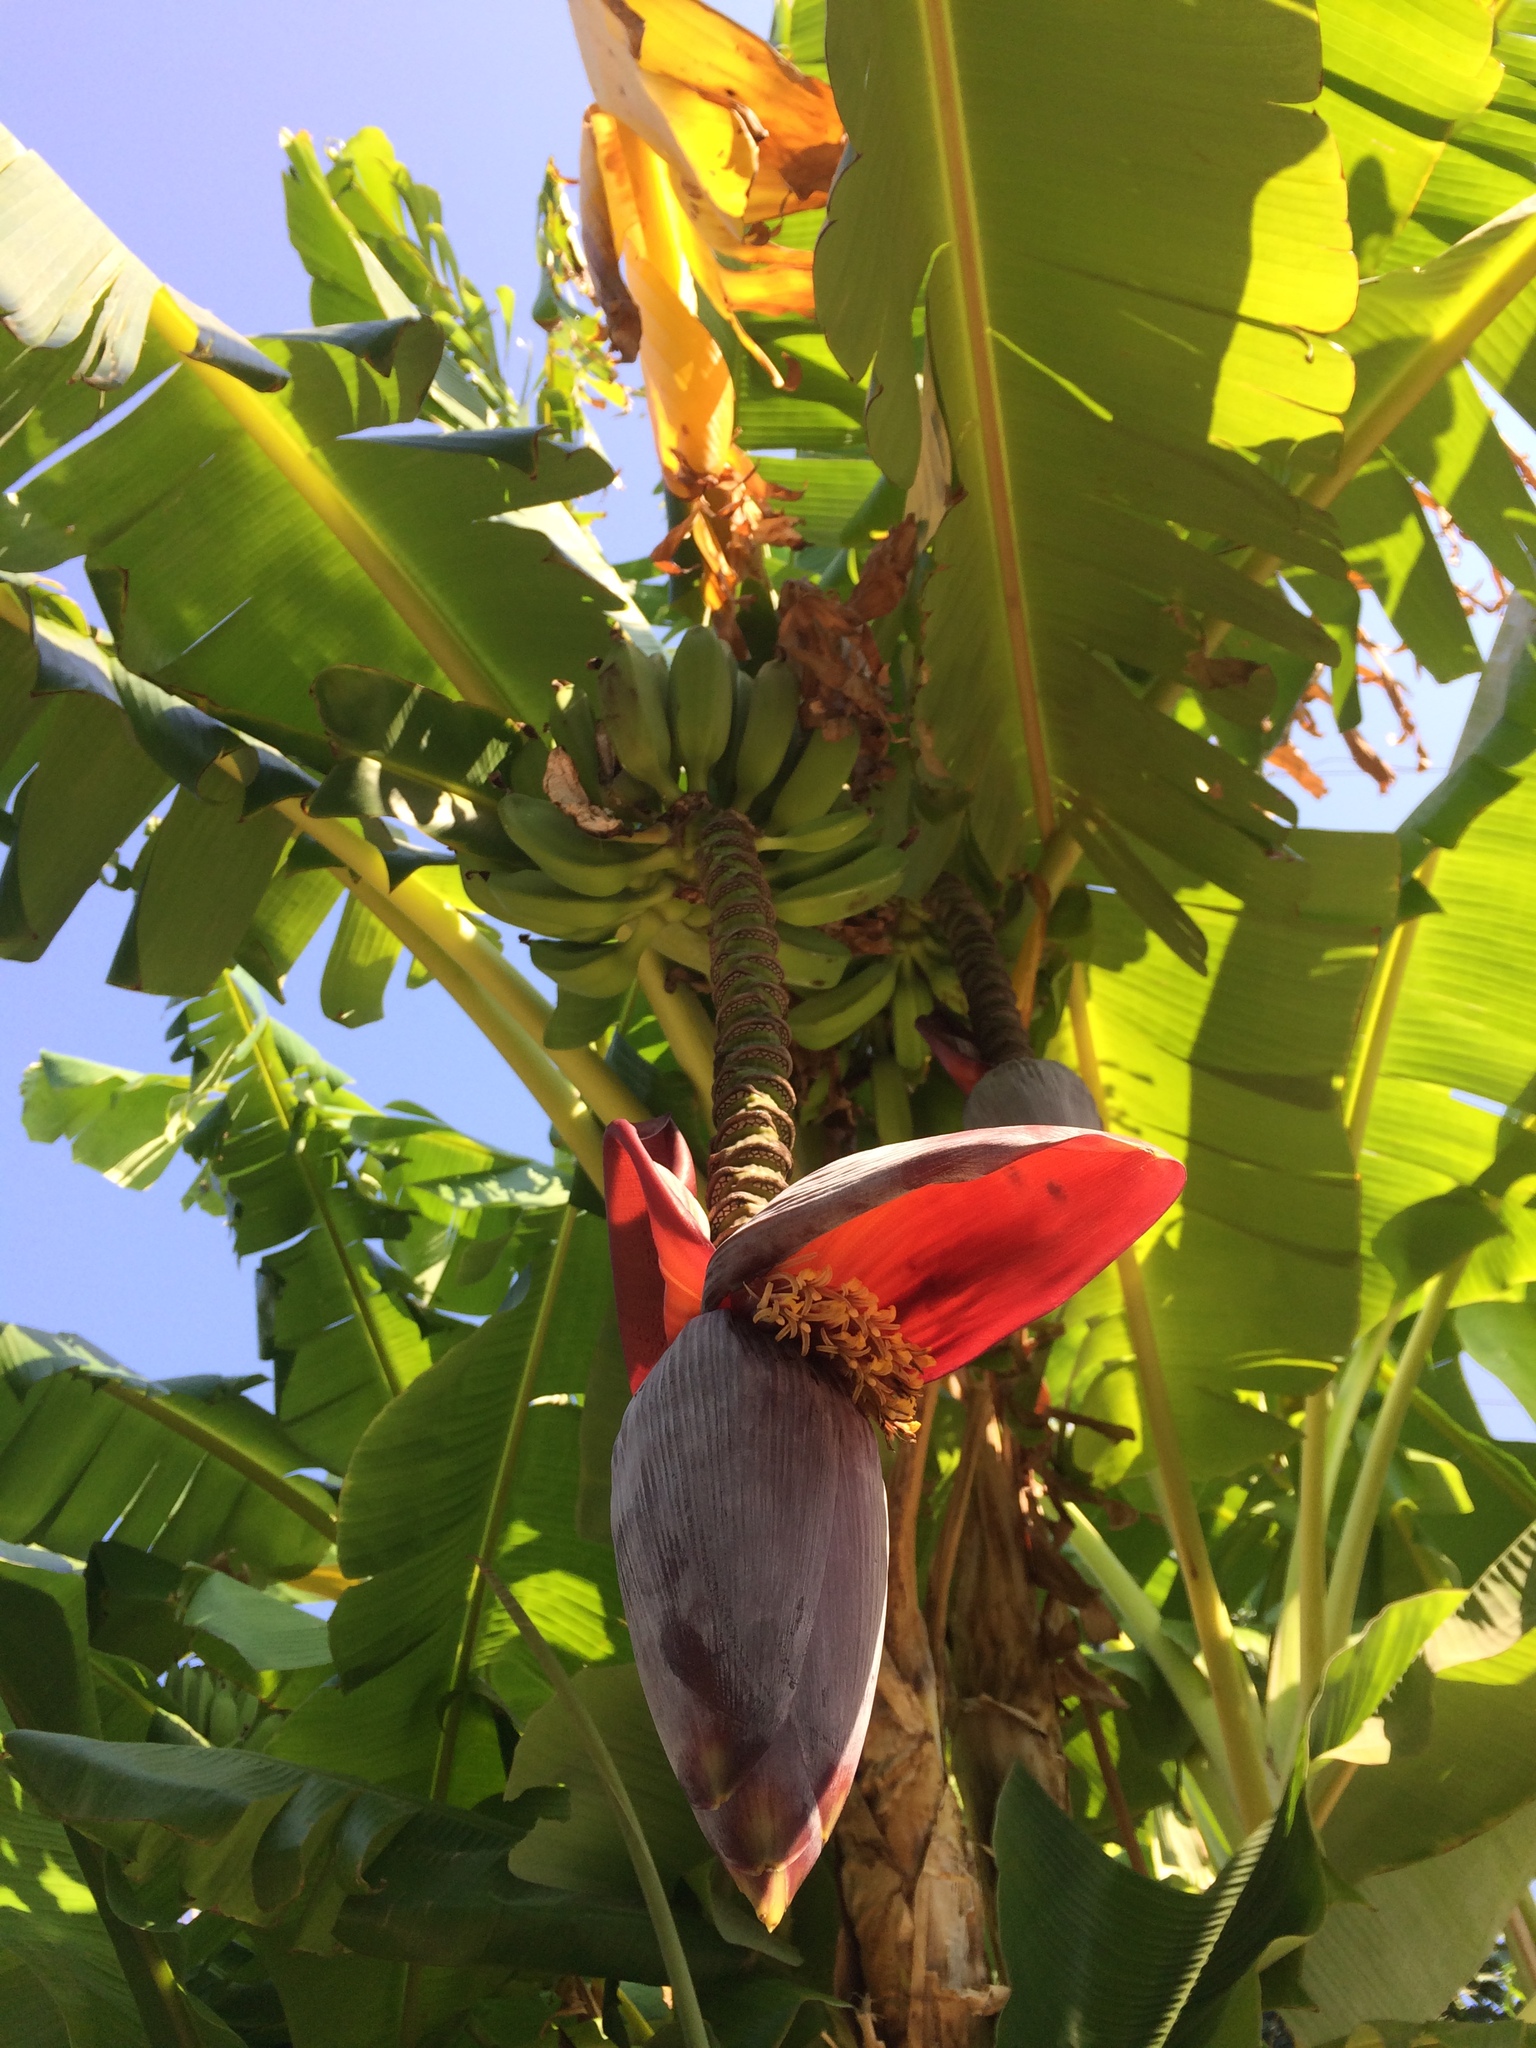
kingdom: Plantae
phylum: Tracheophyta
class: Liliopsida
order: Zingiberales
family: Musaceae
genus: Musa
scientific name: Musa paradisiaca
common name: French plantain
